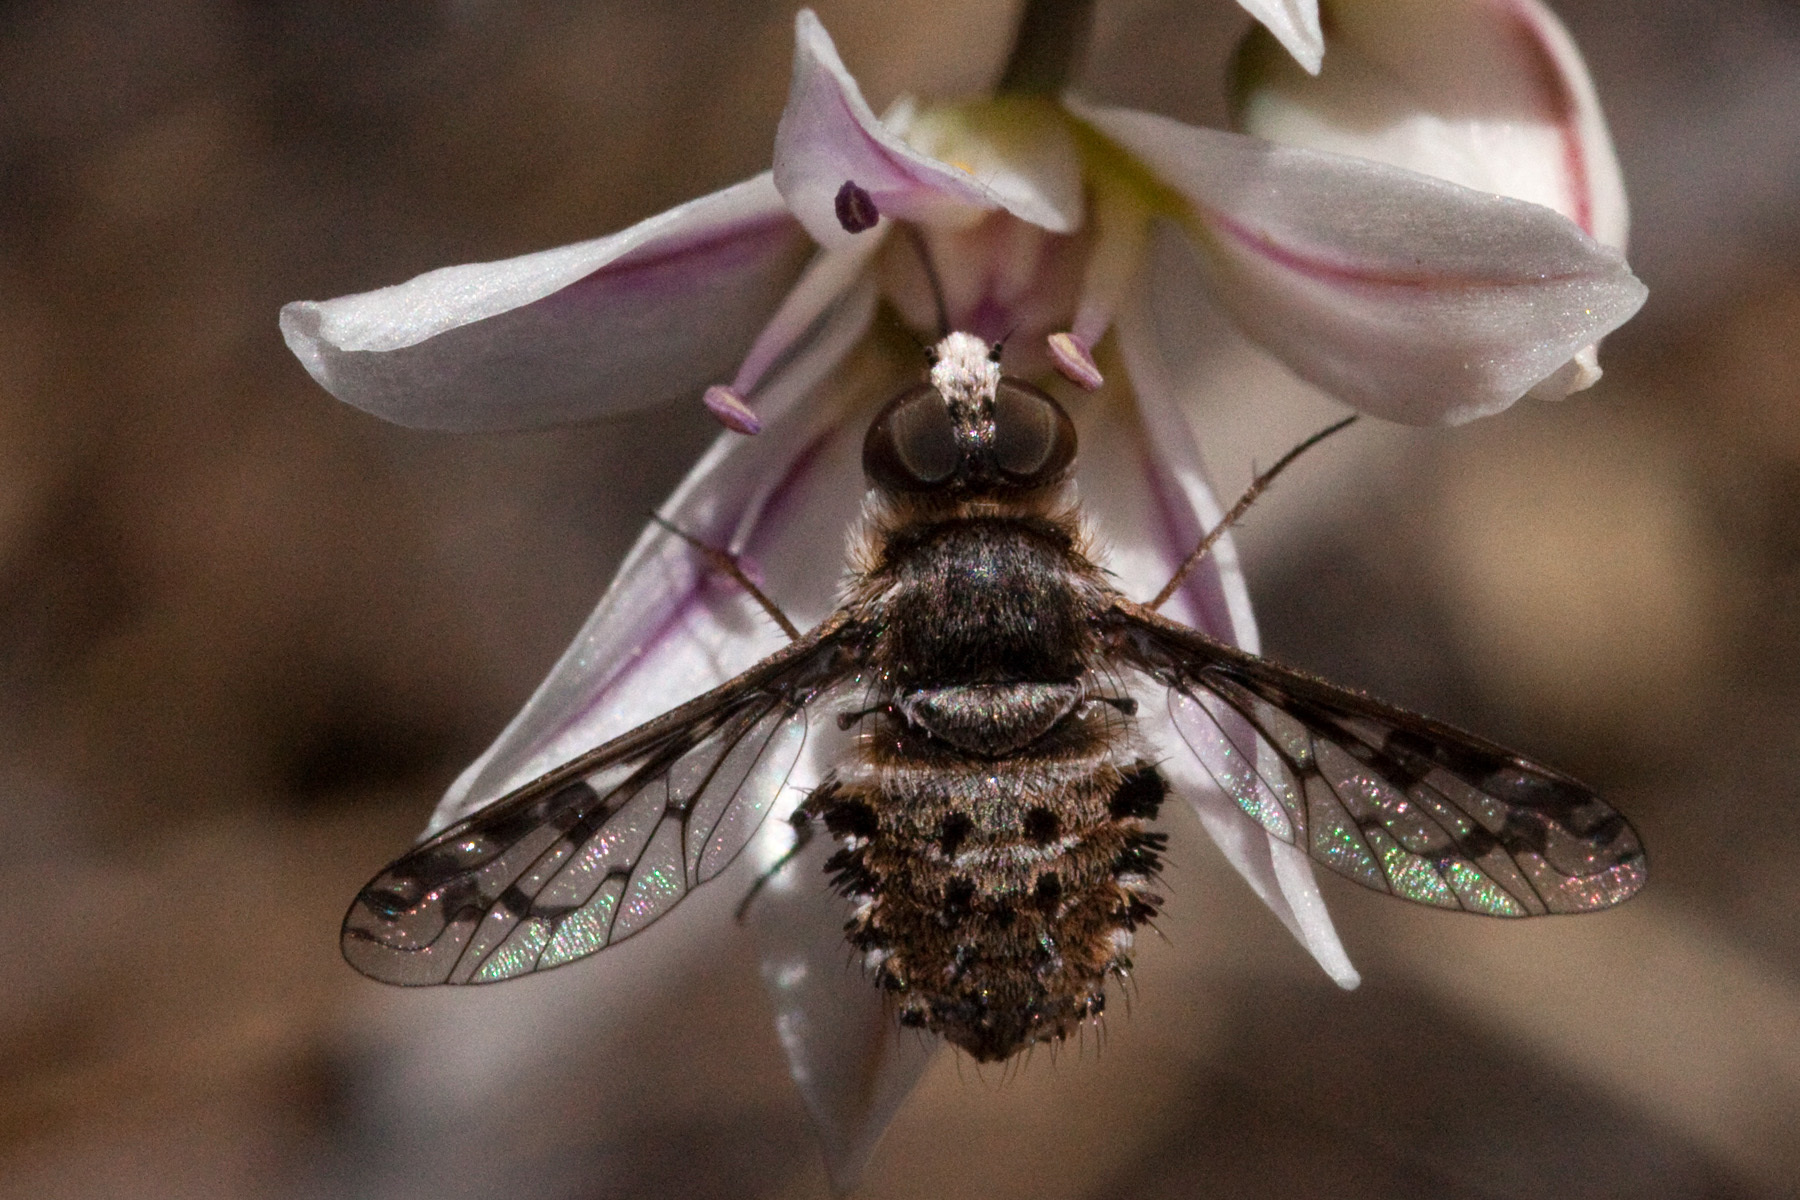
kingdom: Plantae
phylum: Tracheophyta
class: Liliopsida
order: Asparagales
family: Amaryllidaceae
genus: Allium
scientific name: Allium macropetalum
